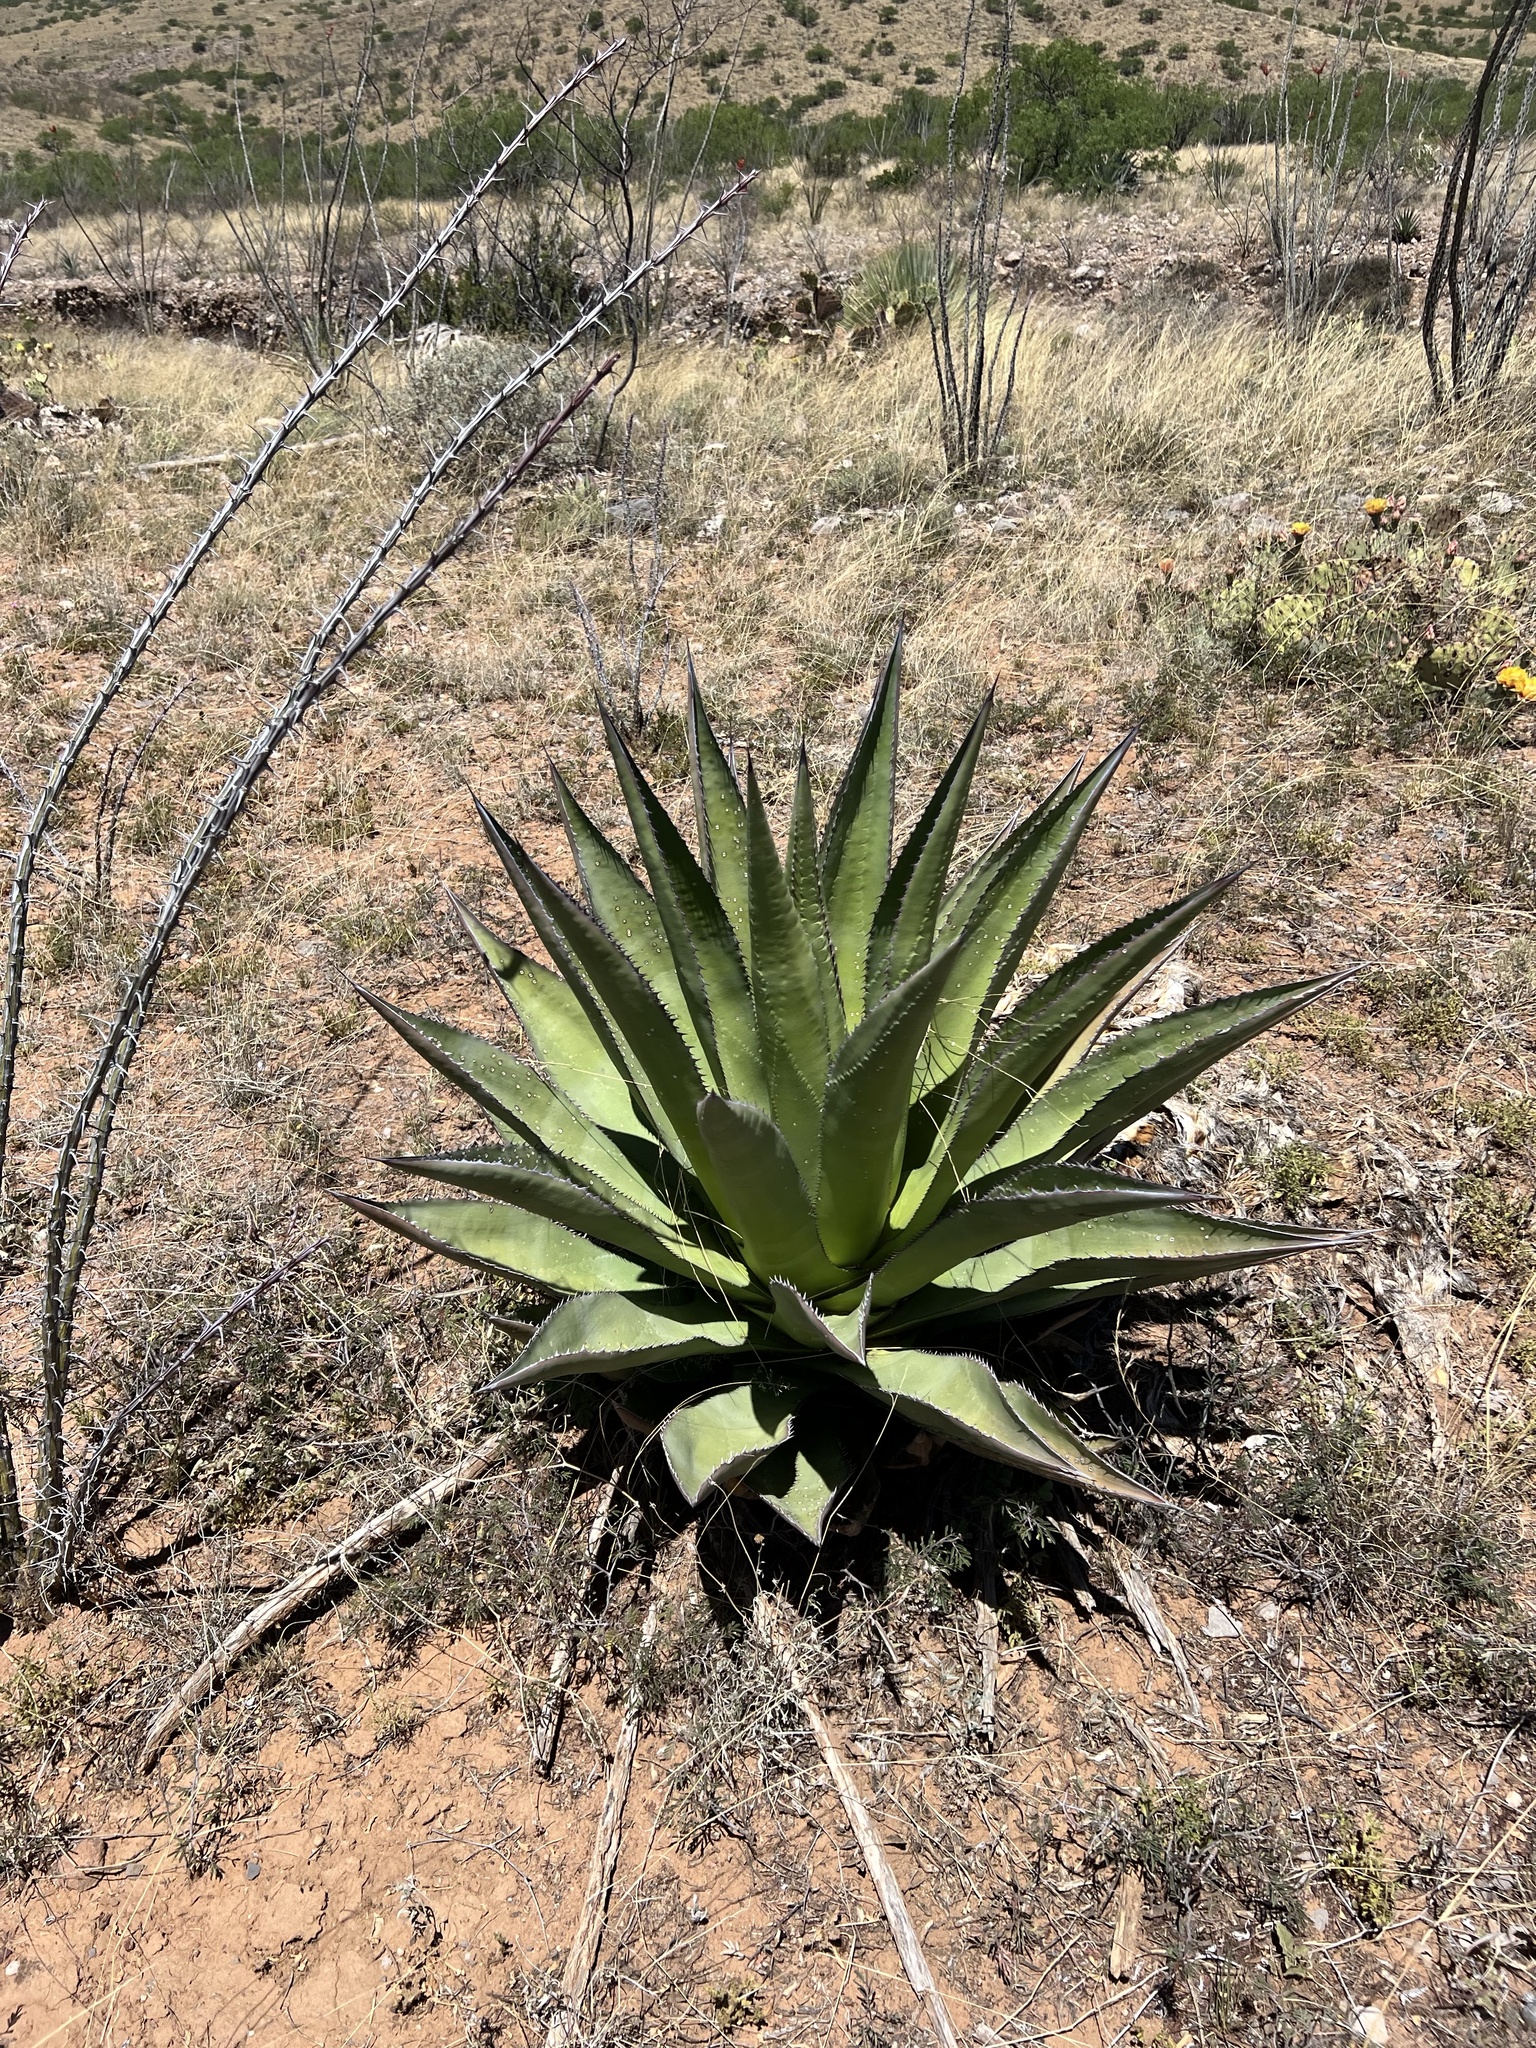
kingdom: Plantae
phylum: Tracheophyta
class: Liliopsida
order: Asparagales
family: Asparagaceae
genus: Agave
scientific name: Agave palmeri
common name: Palmer agave
